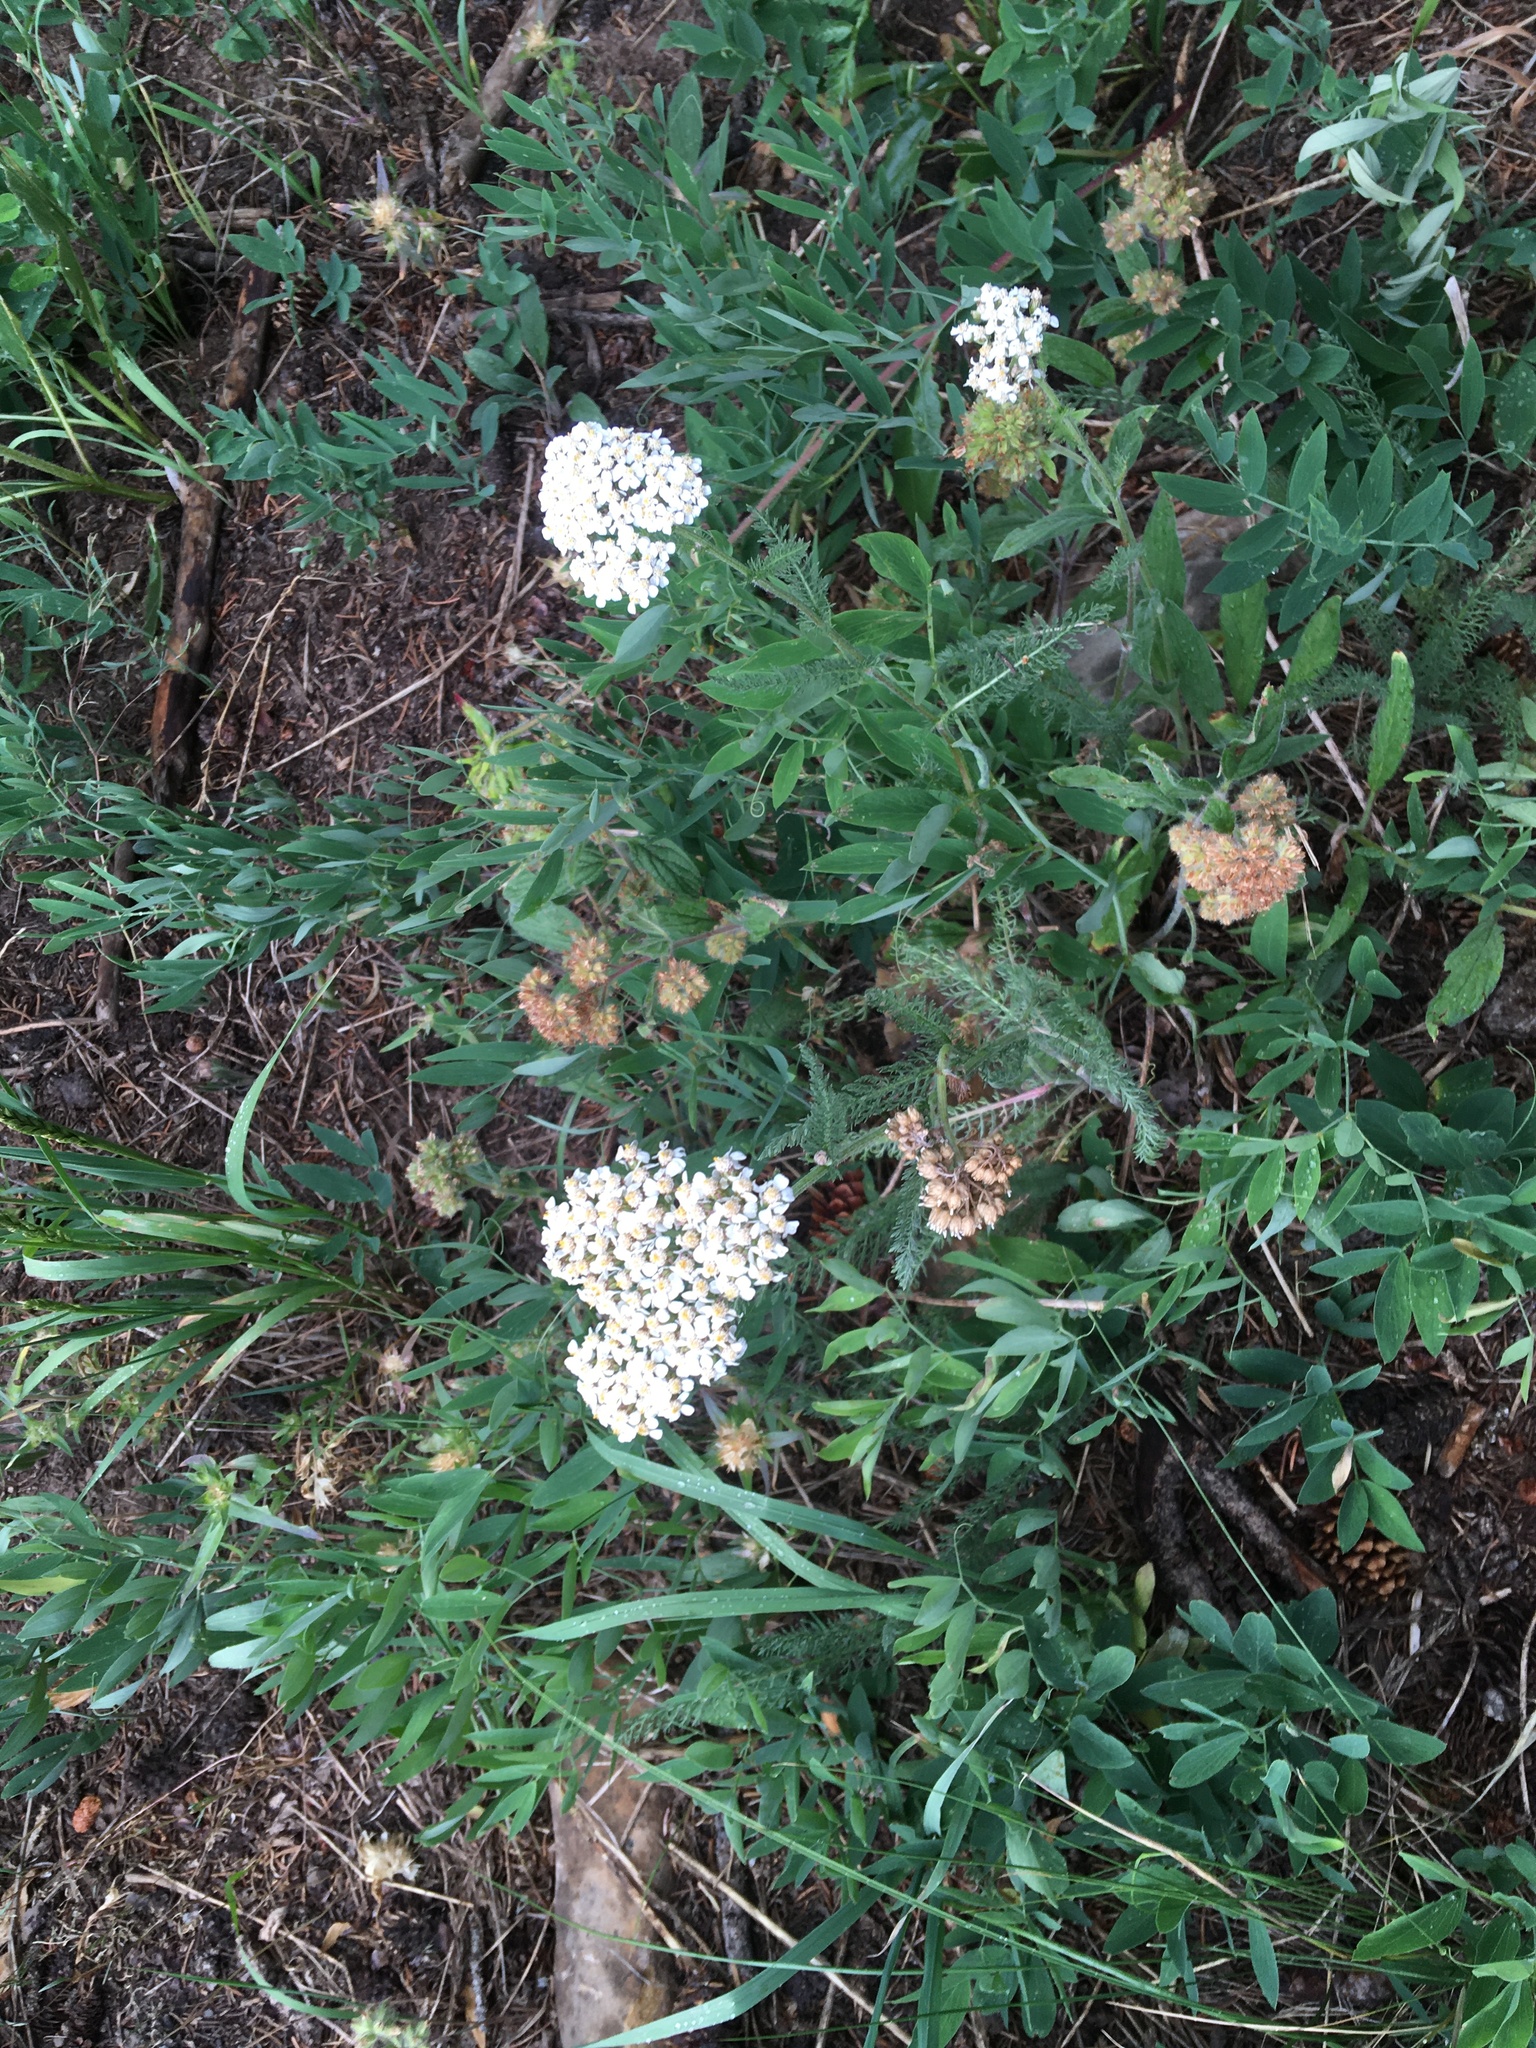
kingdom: Plantae
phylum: Tracheophyta
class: Magnoliopsida
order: Asterales
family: Asteraceae
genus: Achillea
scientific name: Achillea millefolium
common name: Yarrow
